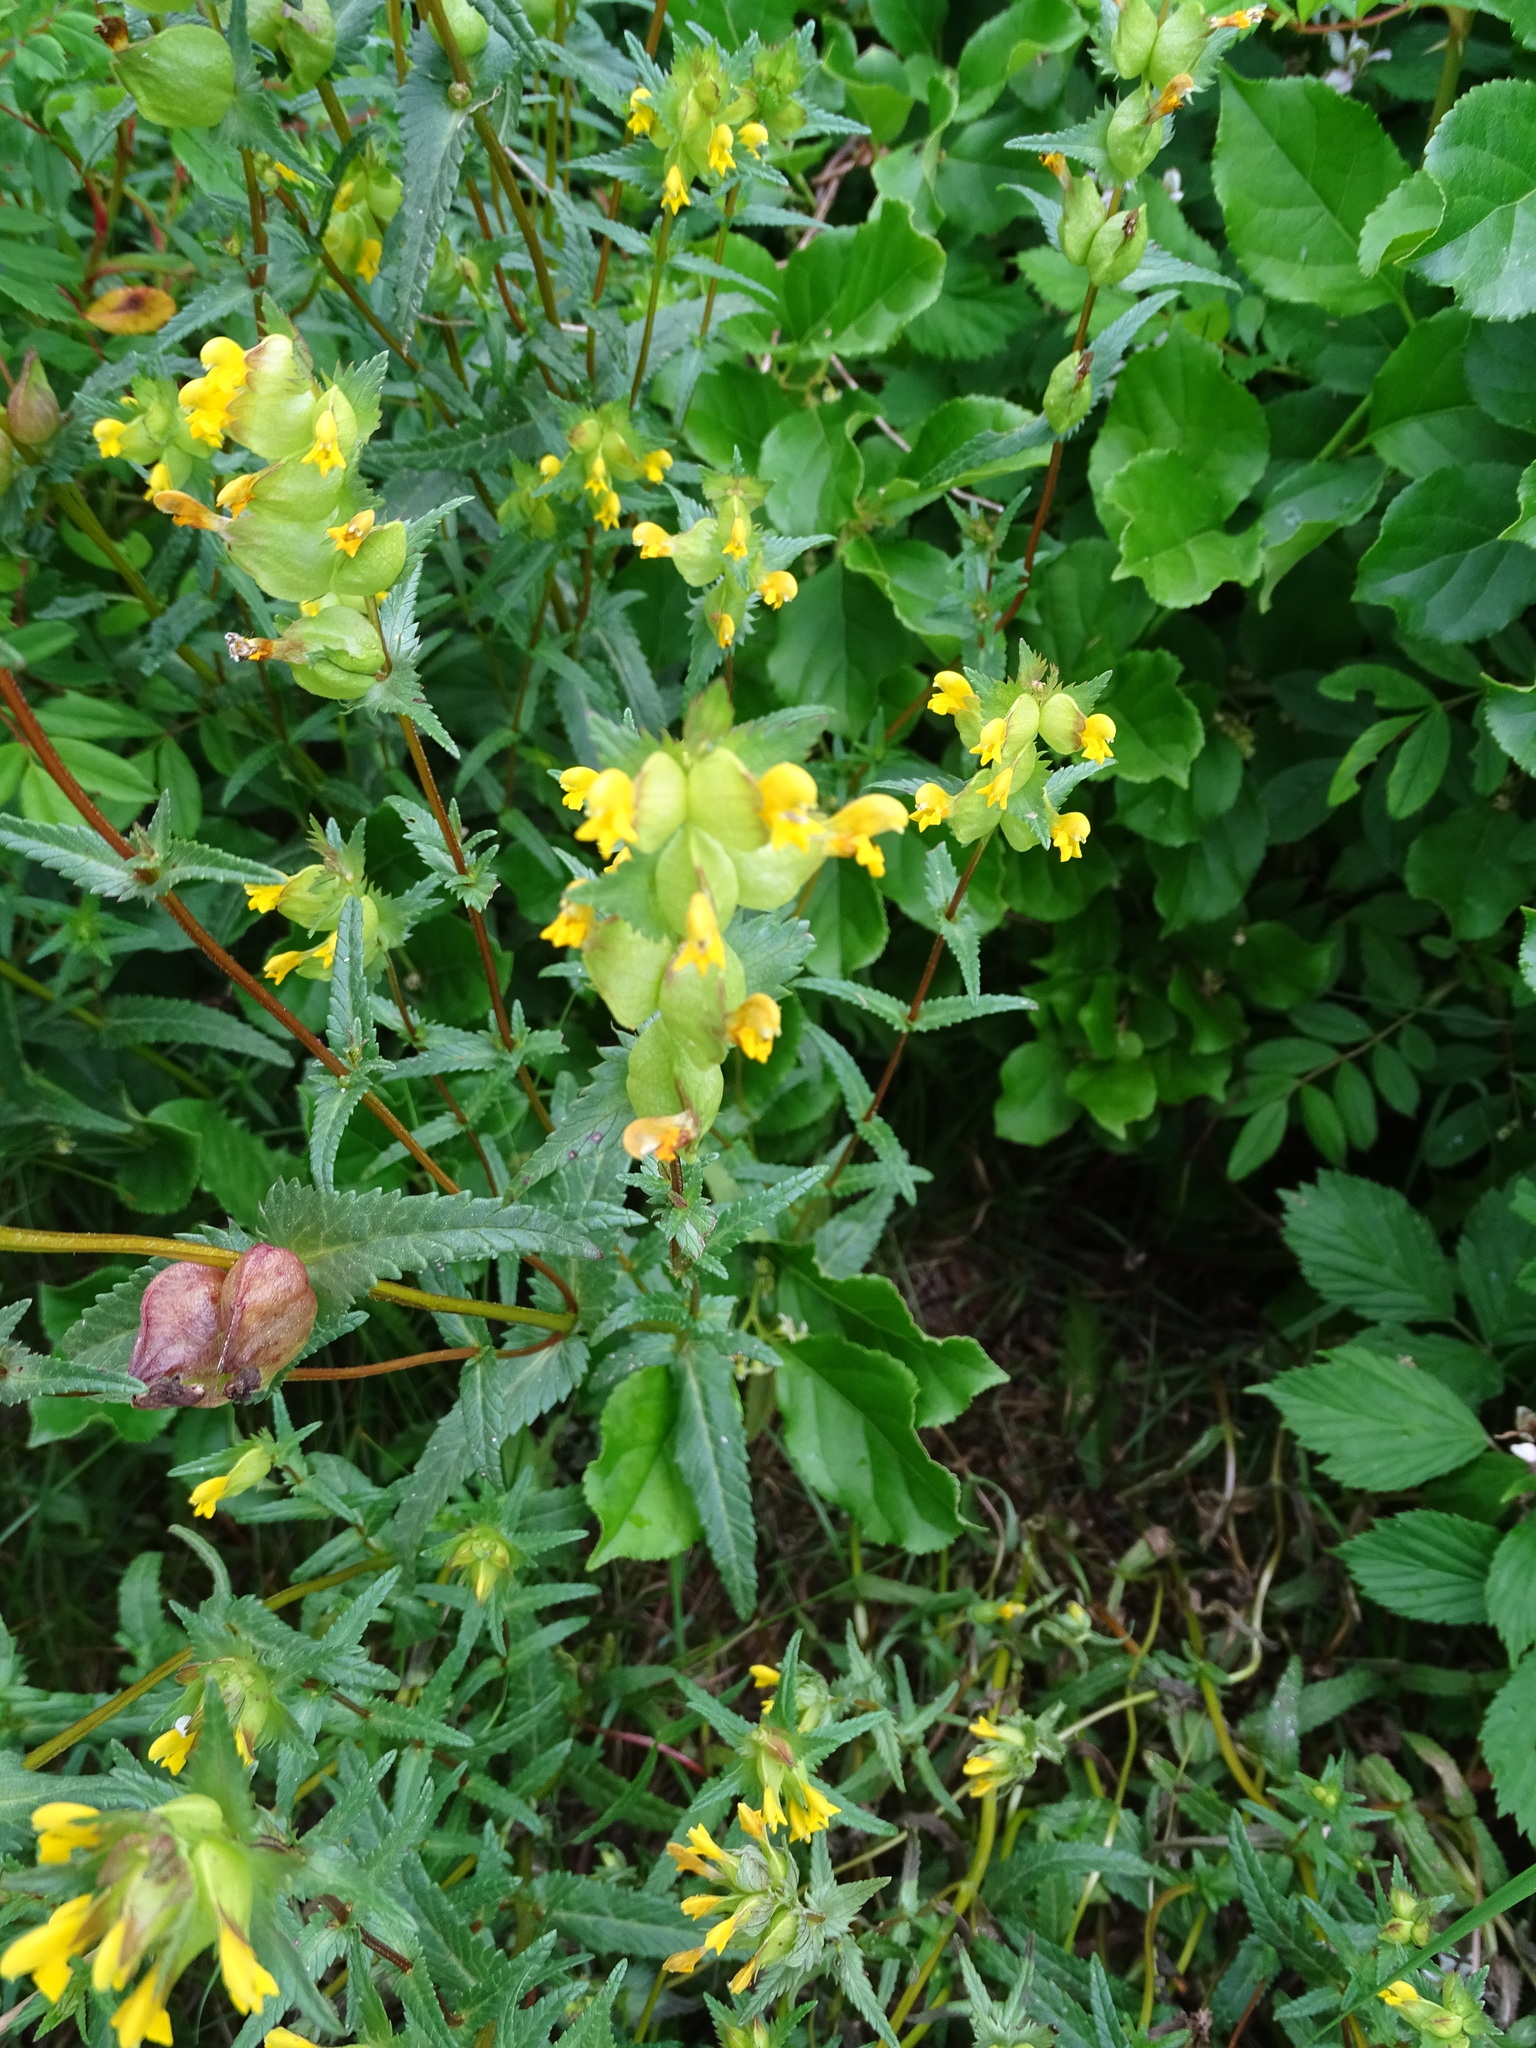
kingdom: Plantae
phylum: Tracheophyta
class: Magnoliopsida
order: Lamiales
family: Orobanchaceae
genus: Rhinanthus
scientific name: Rhinanthus minor
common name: Yellow-rattle
